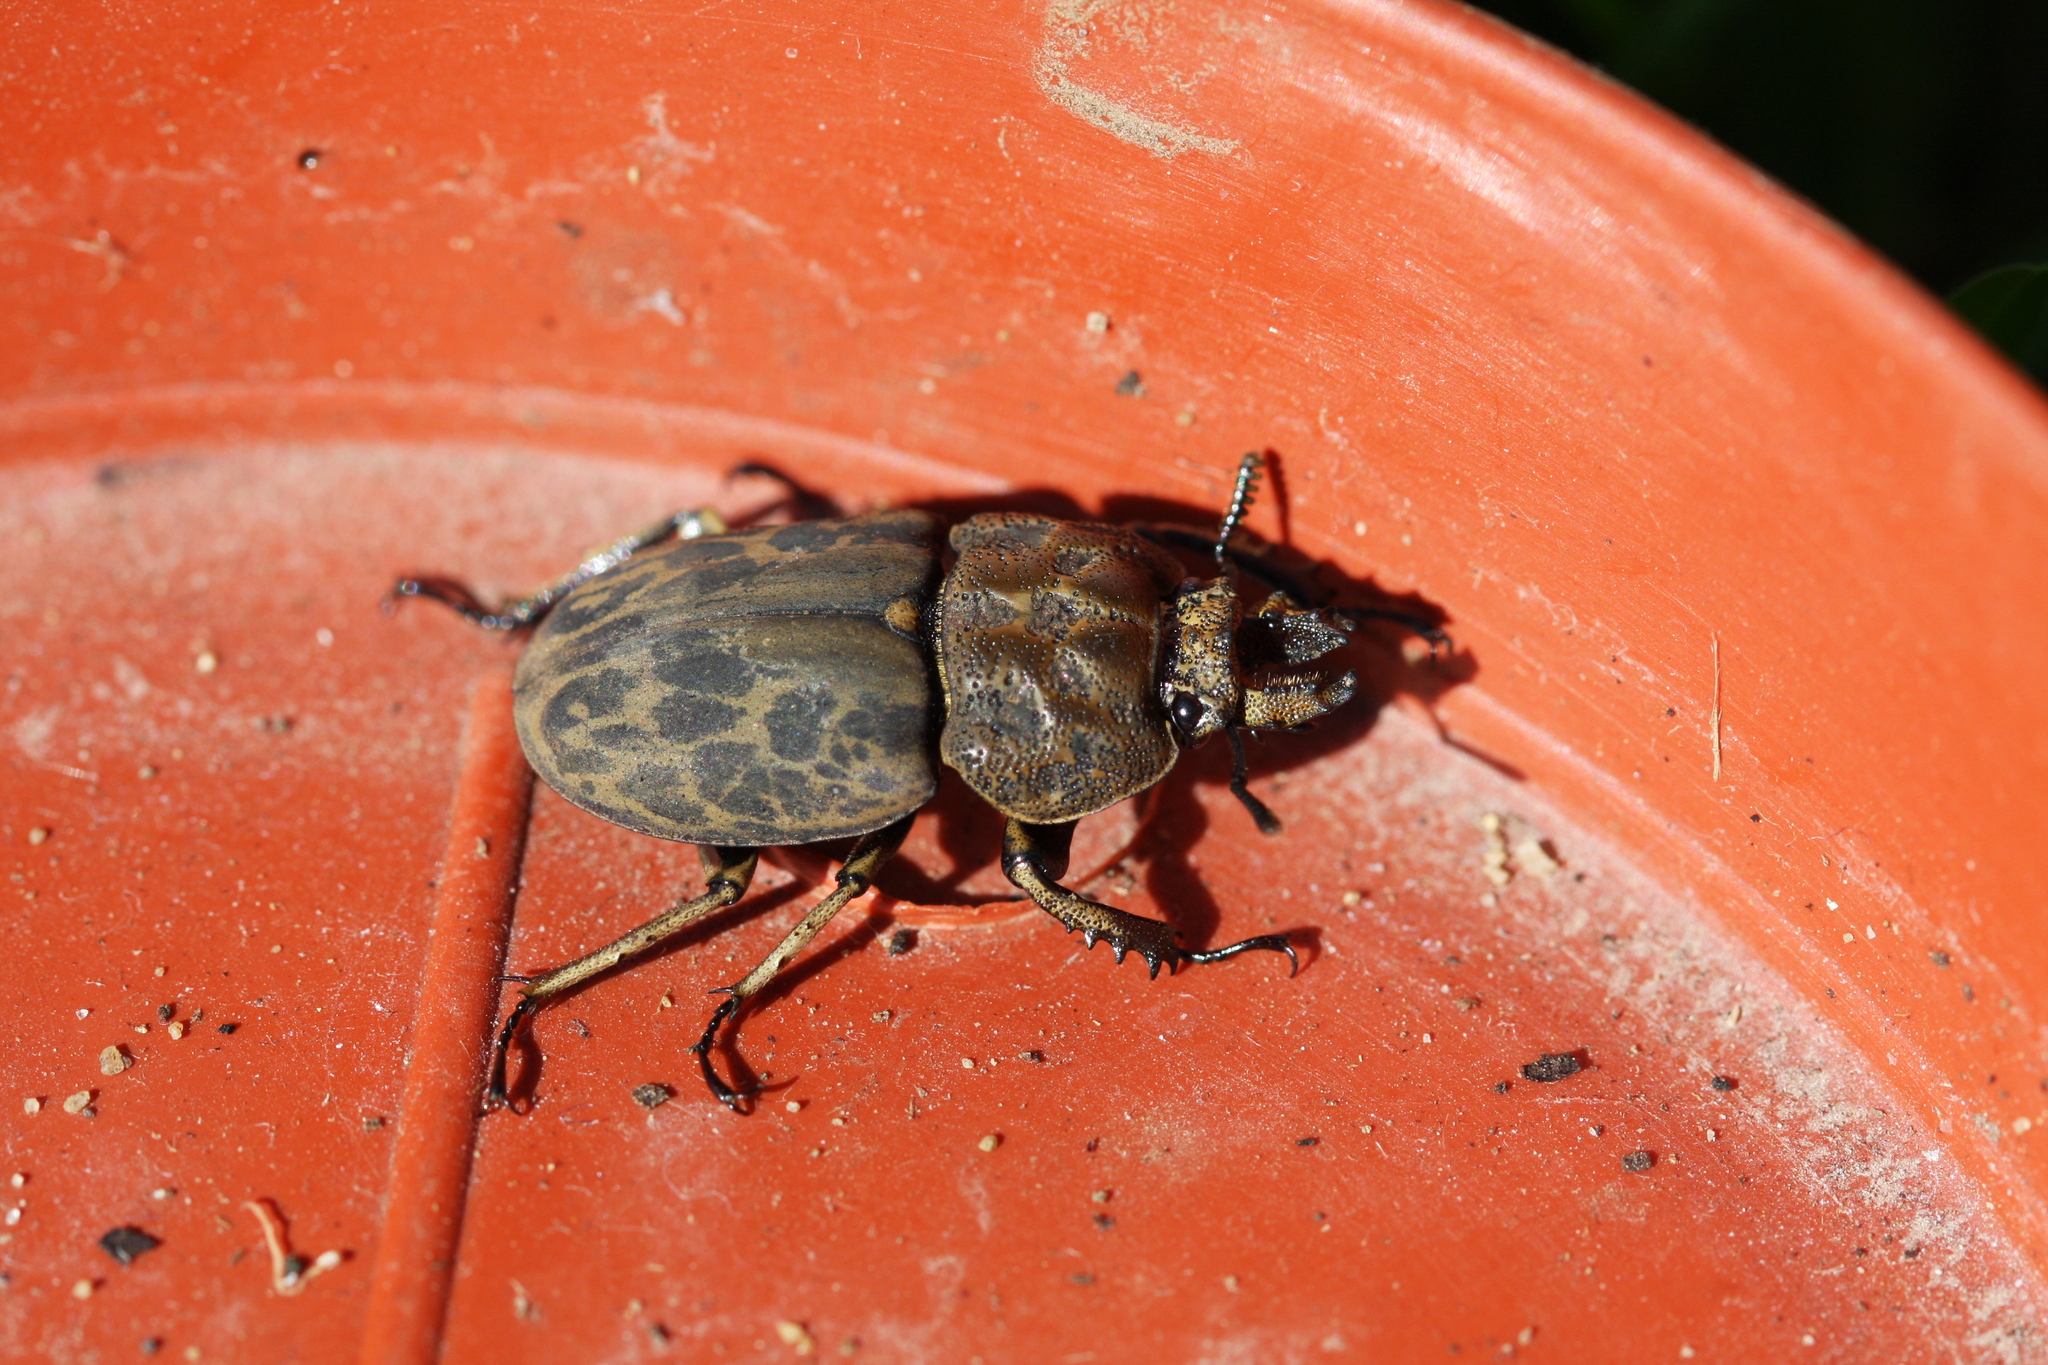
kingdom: Animalia
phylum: Arthropoda
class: Insecta
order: Coleoptera
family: Lucanidae
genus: Ryssonotus
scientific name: Ryssonotus nebulosus
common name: Brown stag beetle
